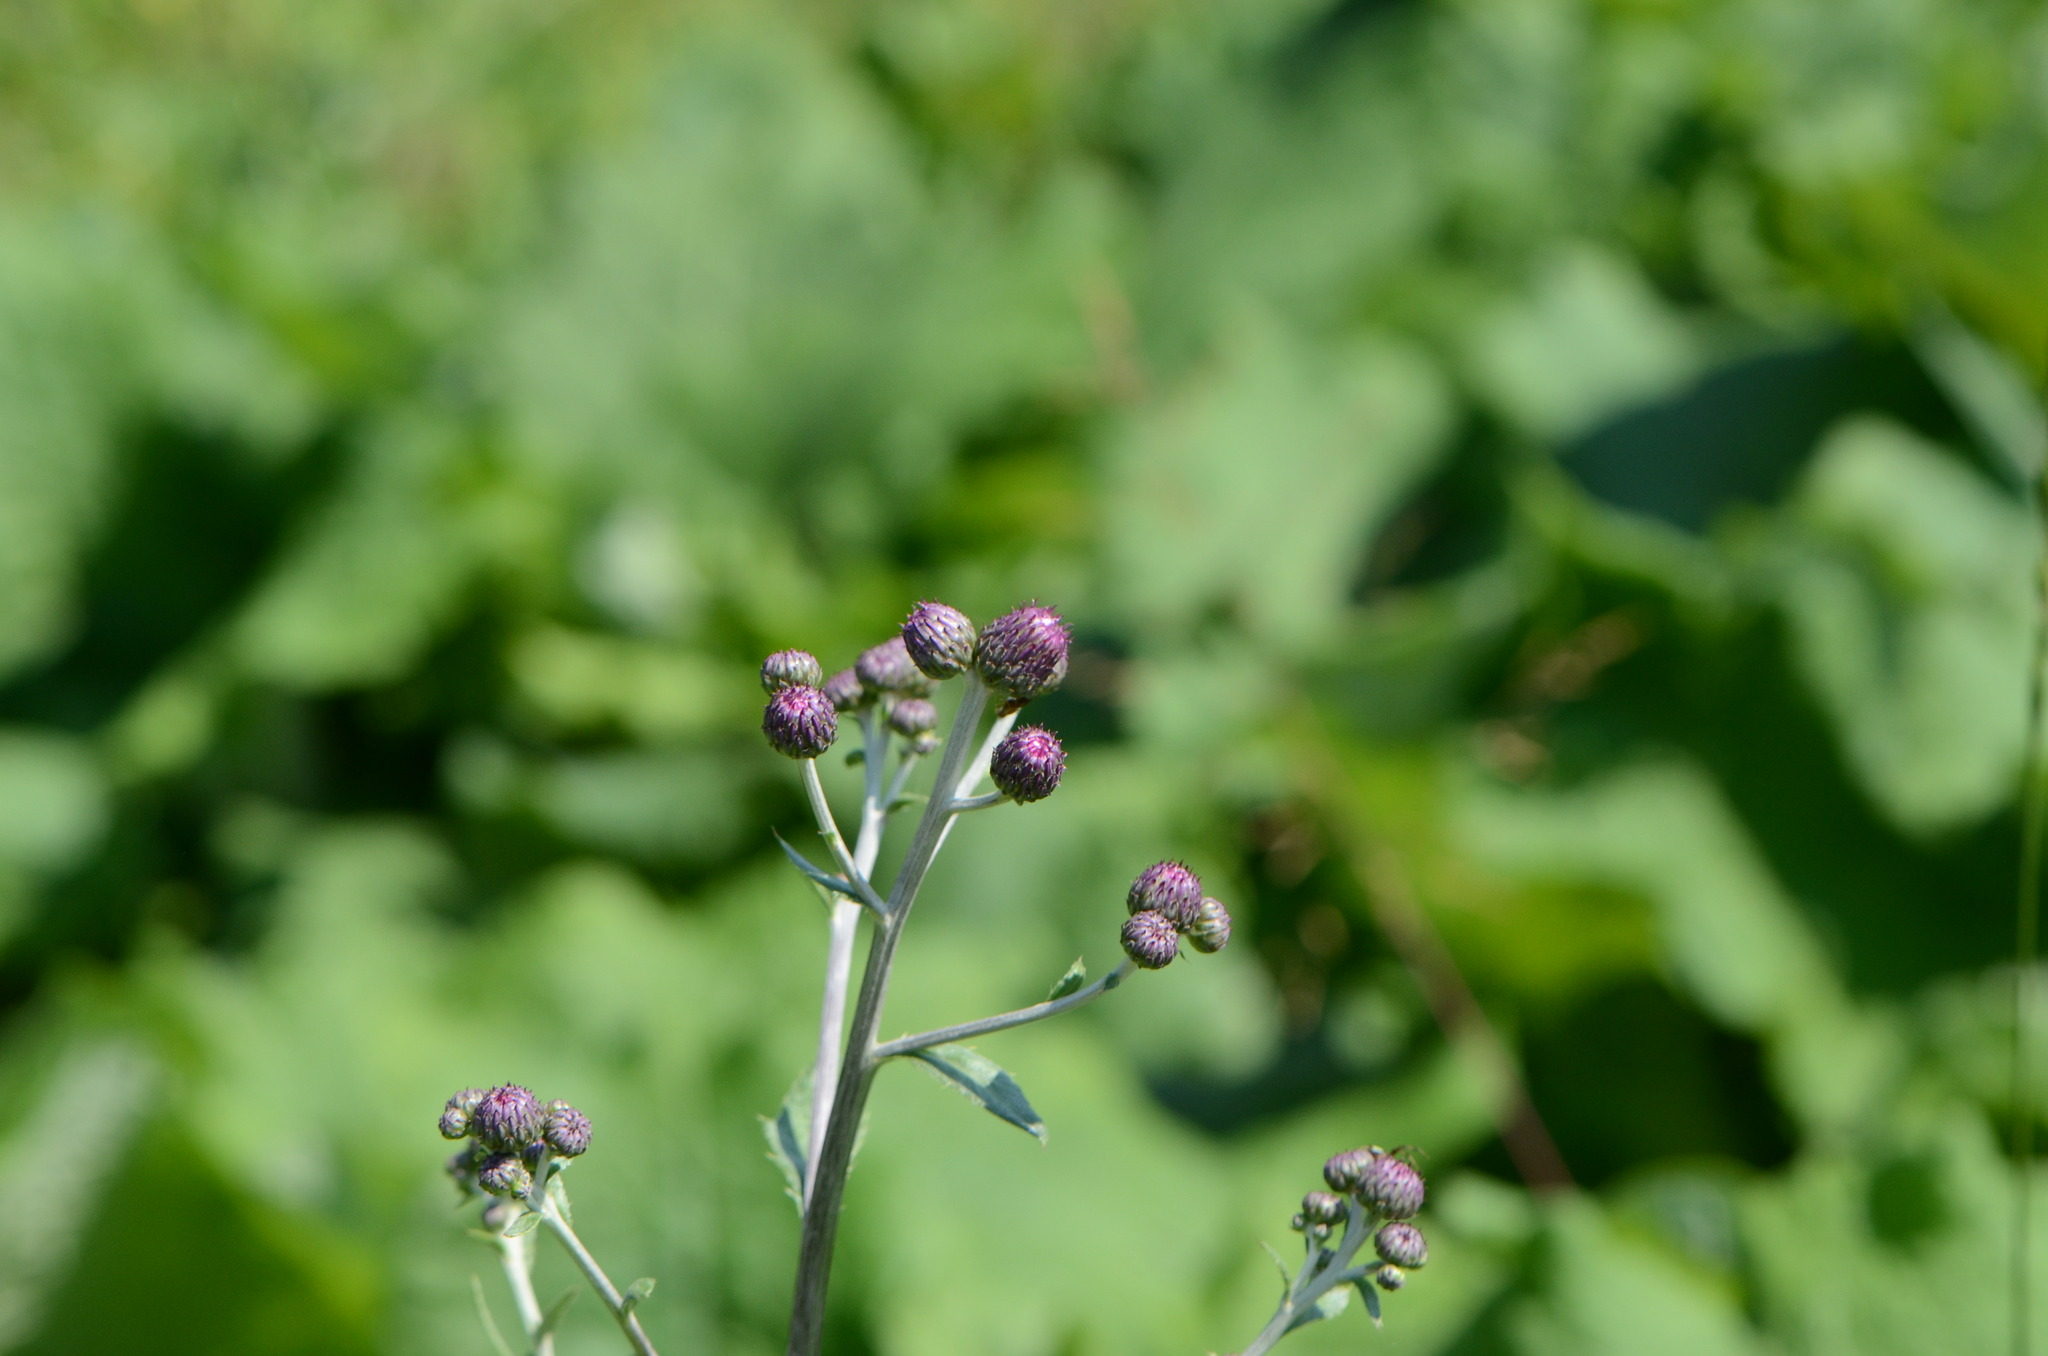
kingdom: Plantae
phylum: Tracheophyta
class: Magnoliopsida
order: Asterales
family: Asteraceae
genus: Cirsium
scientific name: Cirsium arvense
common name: Creeping thistle
